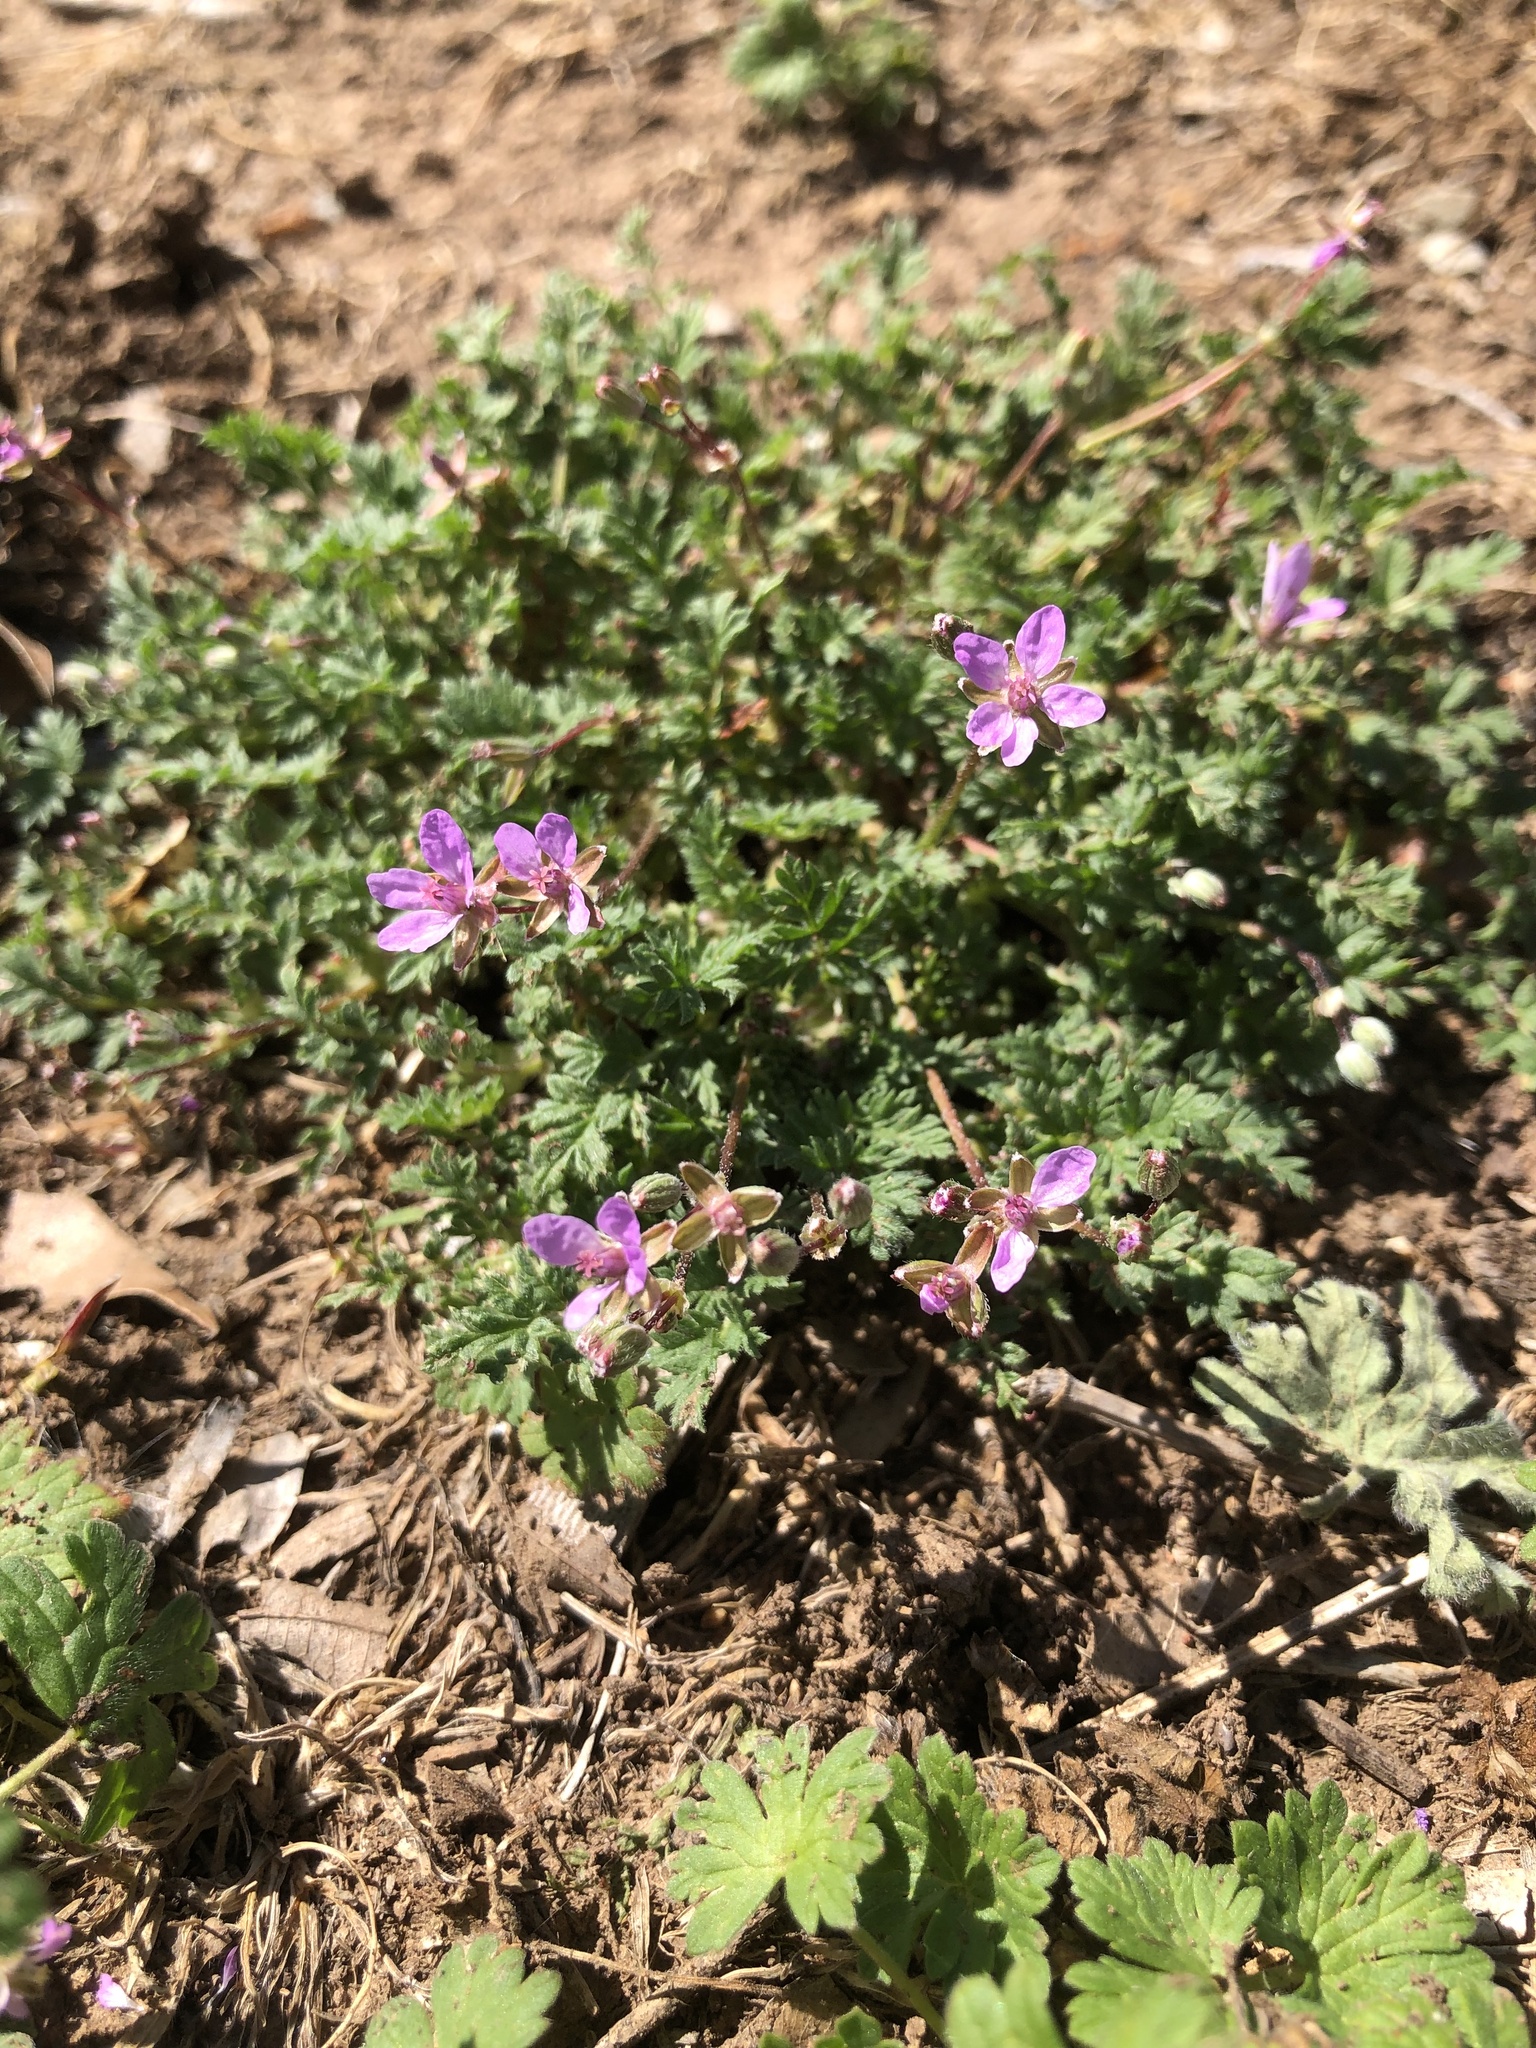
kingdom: Plantae
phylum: Tracheophyta
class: Magnoliopsida
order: Geraniales
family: Geraniaceae
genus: Erodium
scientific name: Erodium cicutarium
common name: Common stork's-bill
